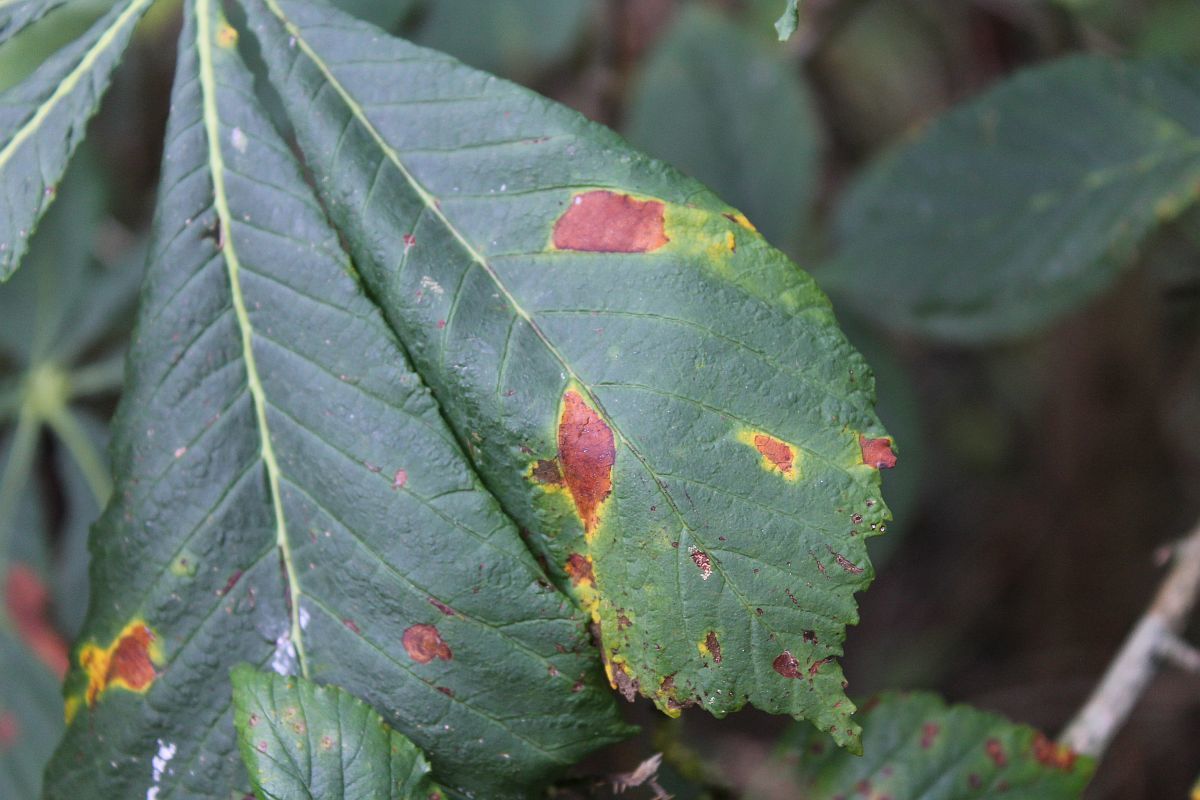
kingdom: Animalia
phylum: Arthropoda
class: Insecta
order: Lepidoptera
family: Gracillariidae
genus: Cameraria
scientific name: Cameraria ohridella
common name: Horse-chestnut leaf-miner
